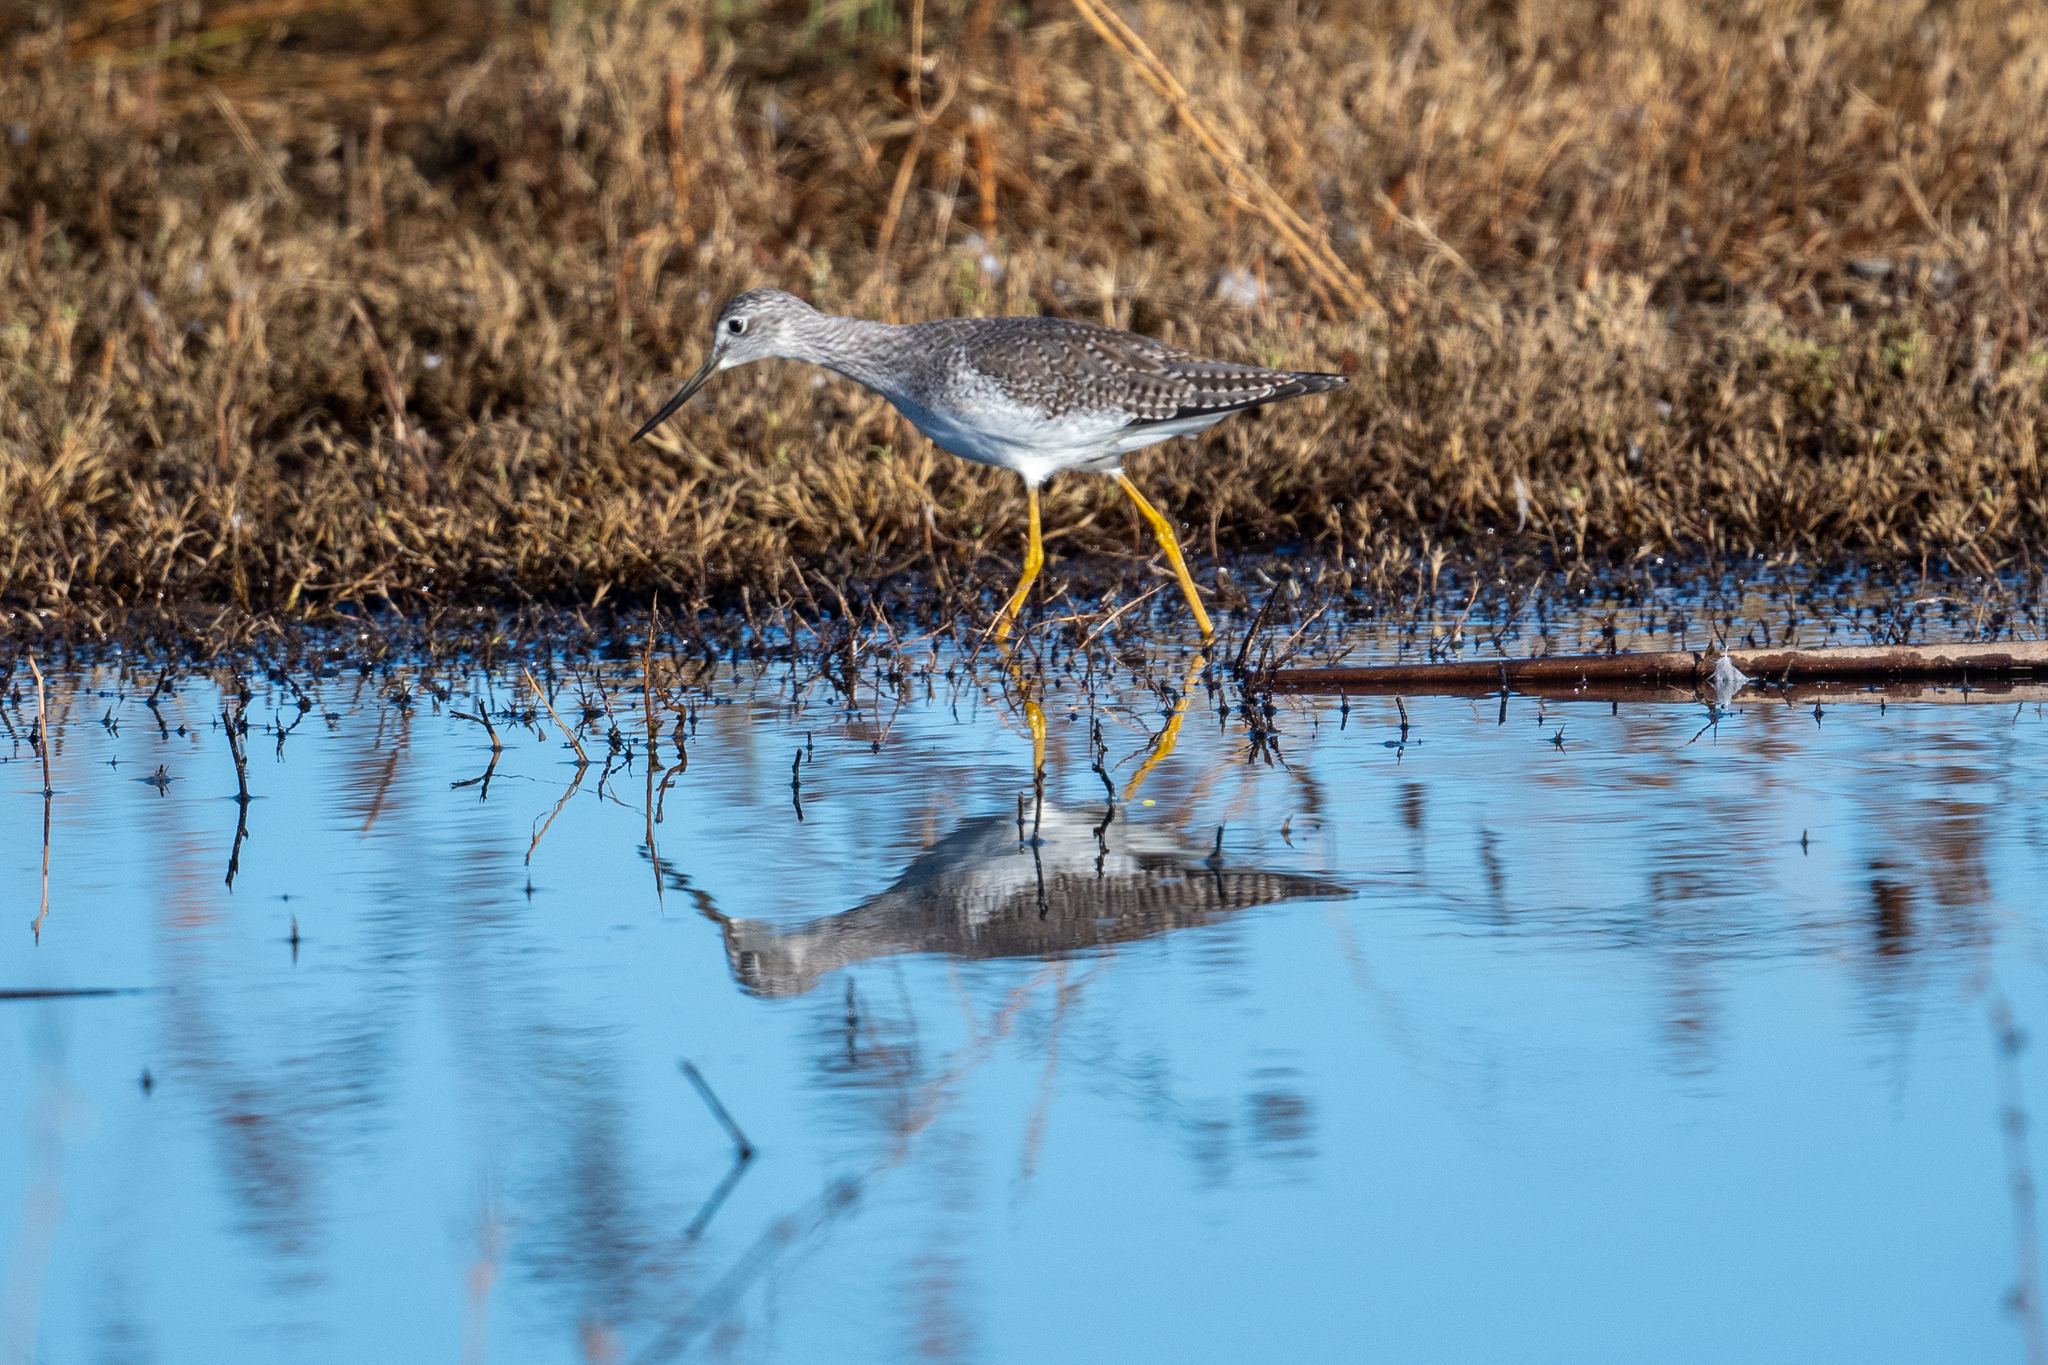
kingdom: Animalia
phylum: Chordata
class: Aves
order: Charadriiformes
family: Scolopacidae
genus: Tringa
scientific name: Tringa melanoleuca
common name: Greater yellowlegs
